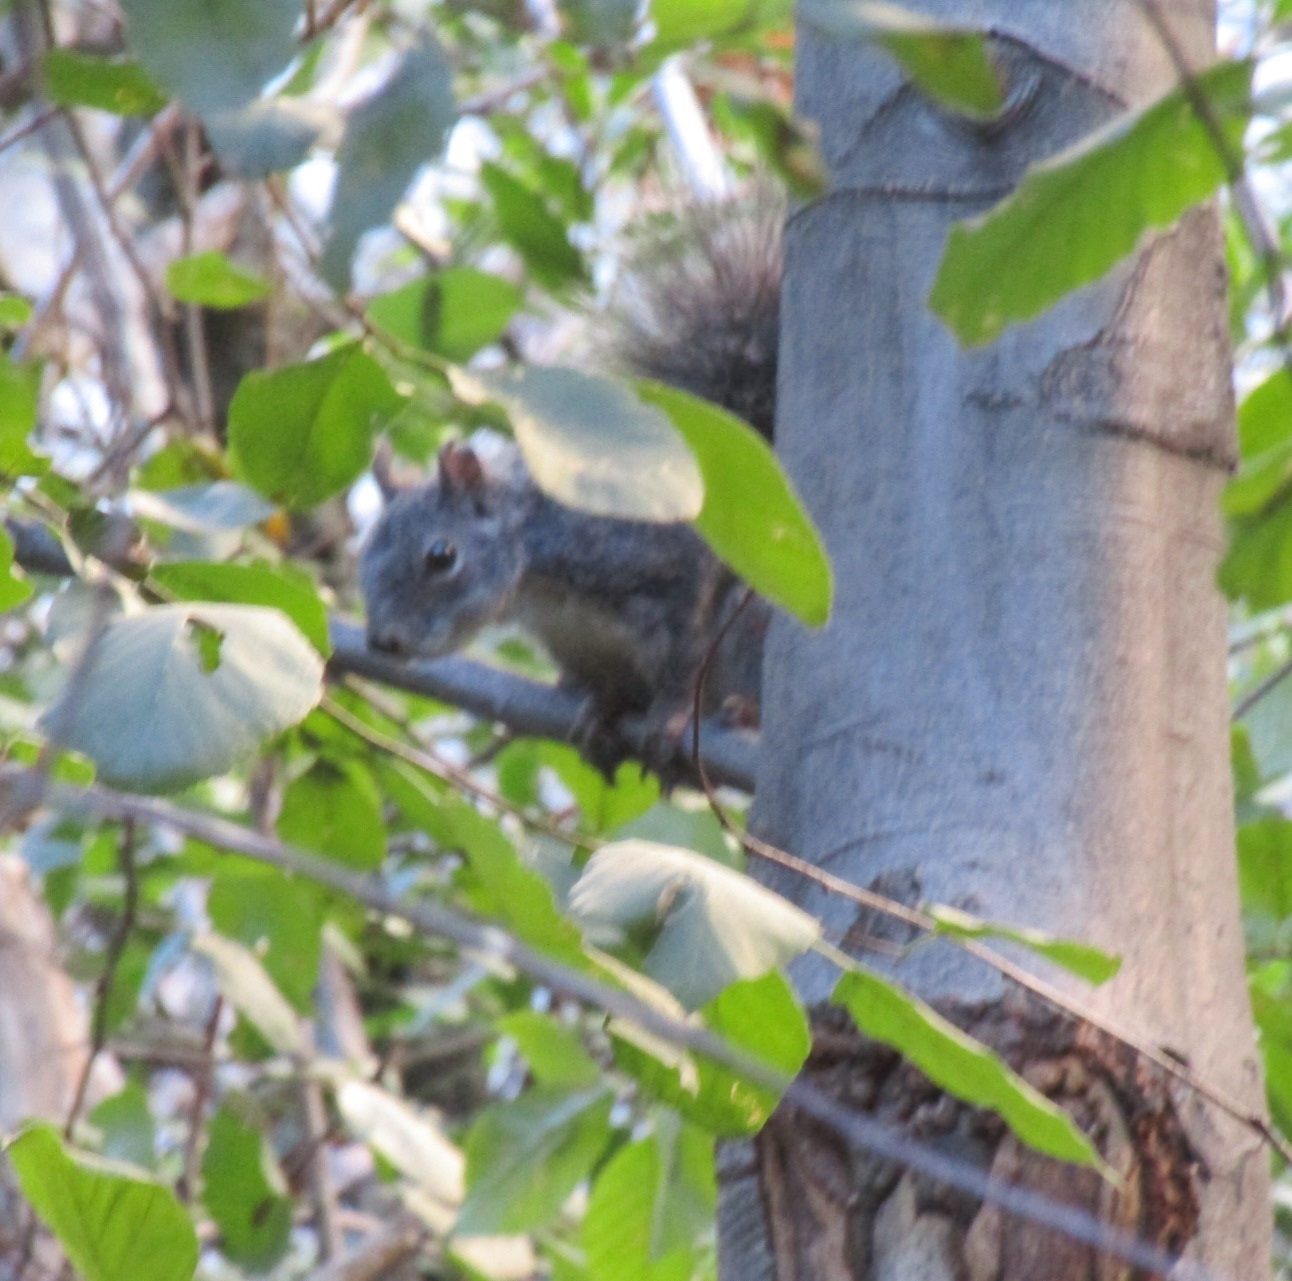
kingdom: Animalia
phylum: Chordata
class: Mammalia
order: Rodentia
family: Sciuridae
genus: Sciurus
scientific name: Sciurus griseus
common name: Western gray squirrel
